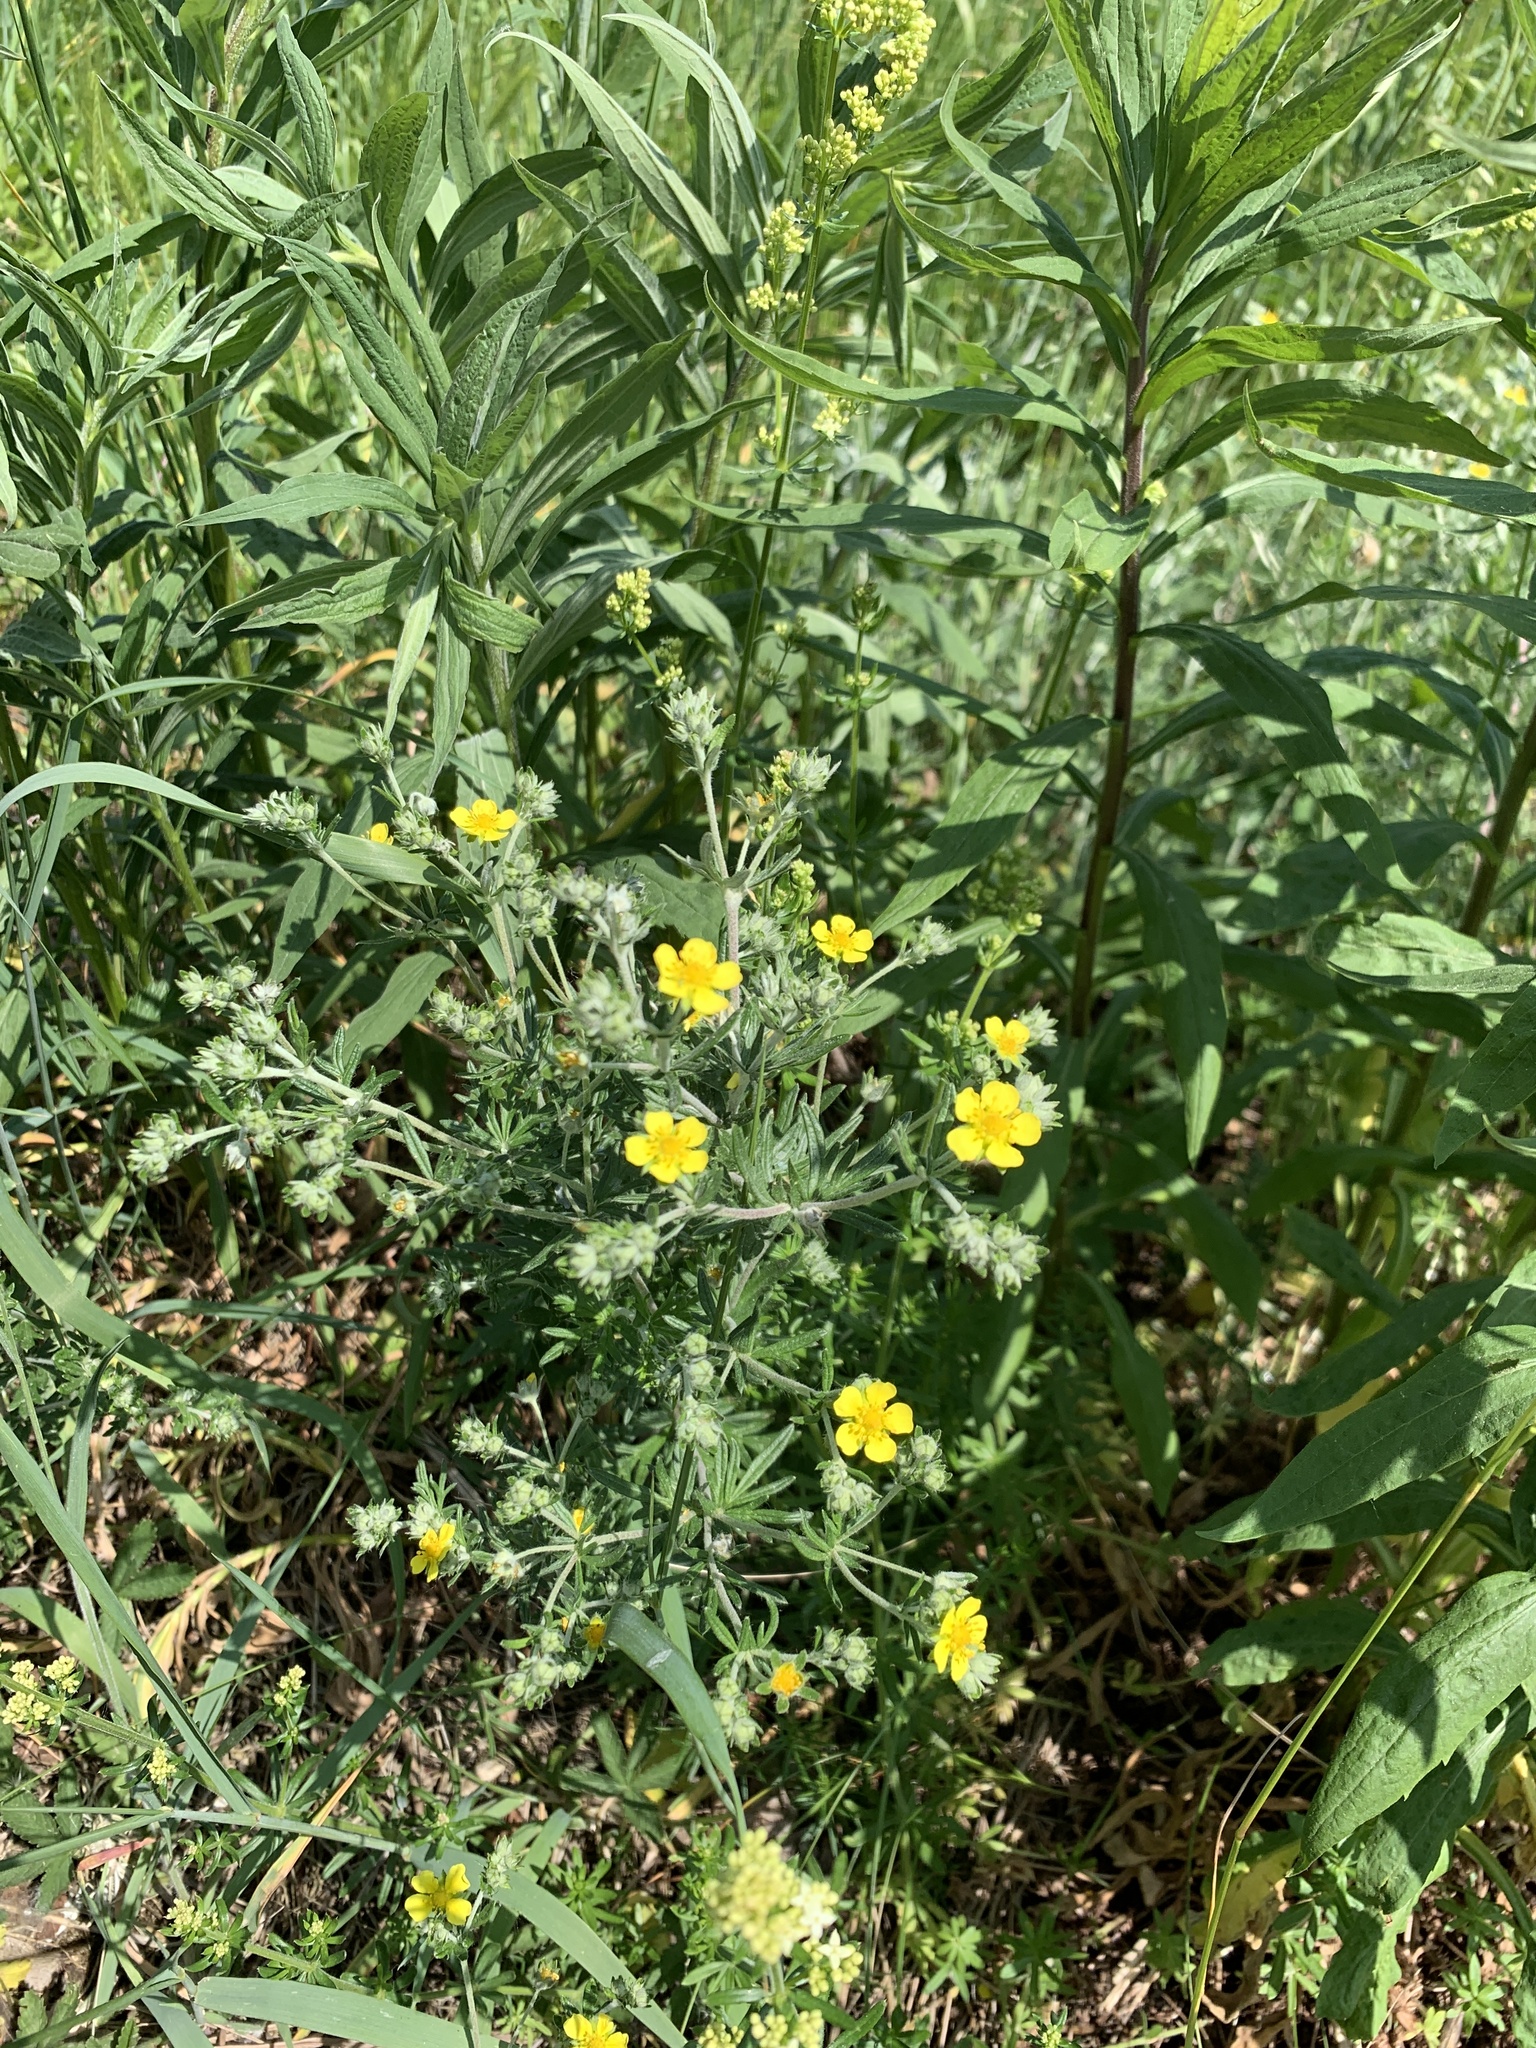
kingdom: Plantae
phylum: Tracheophyta
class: Magnoliopsida
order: Rosales
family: Rosaceae
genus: Potentilla
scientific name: Potentilla argentea
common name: Hoary cinquefoil
